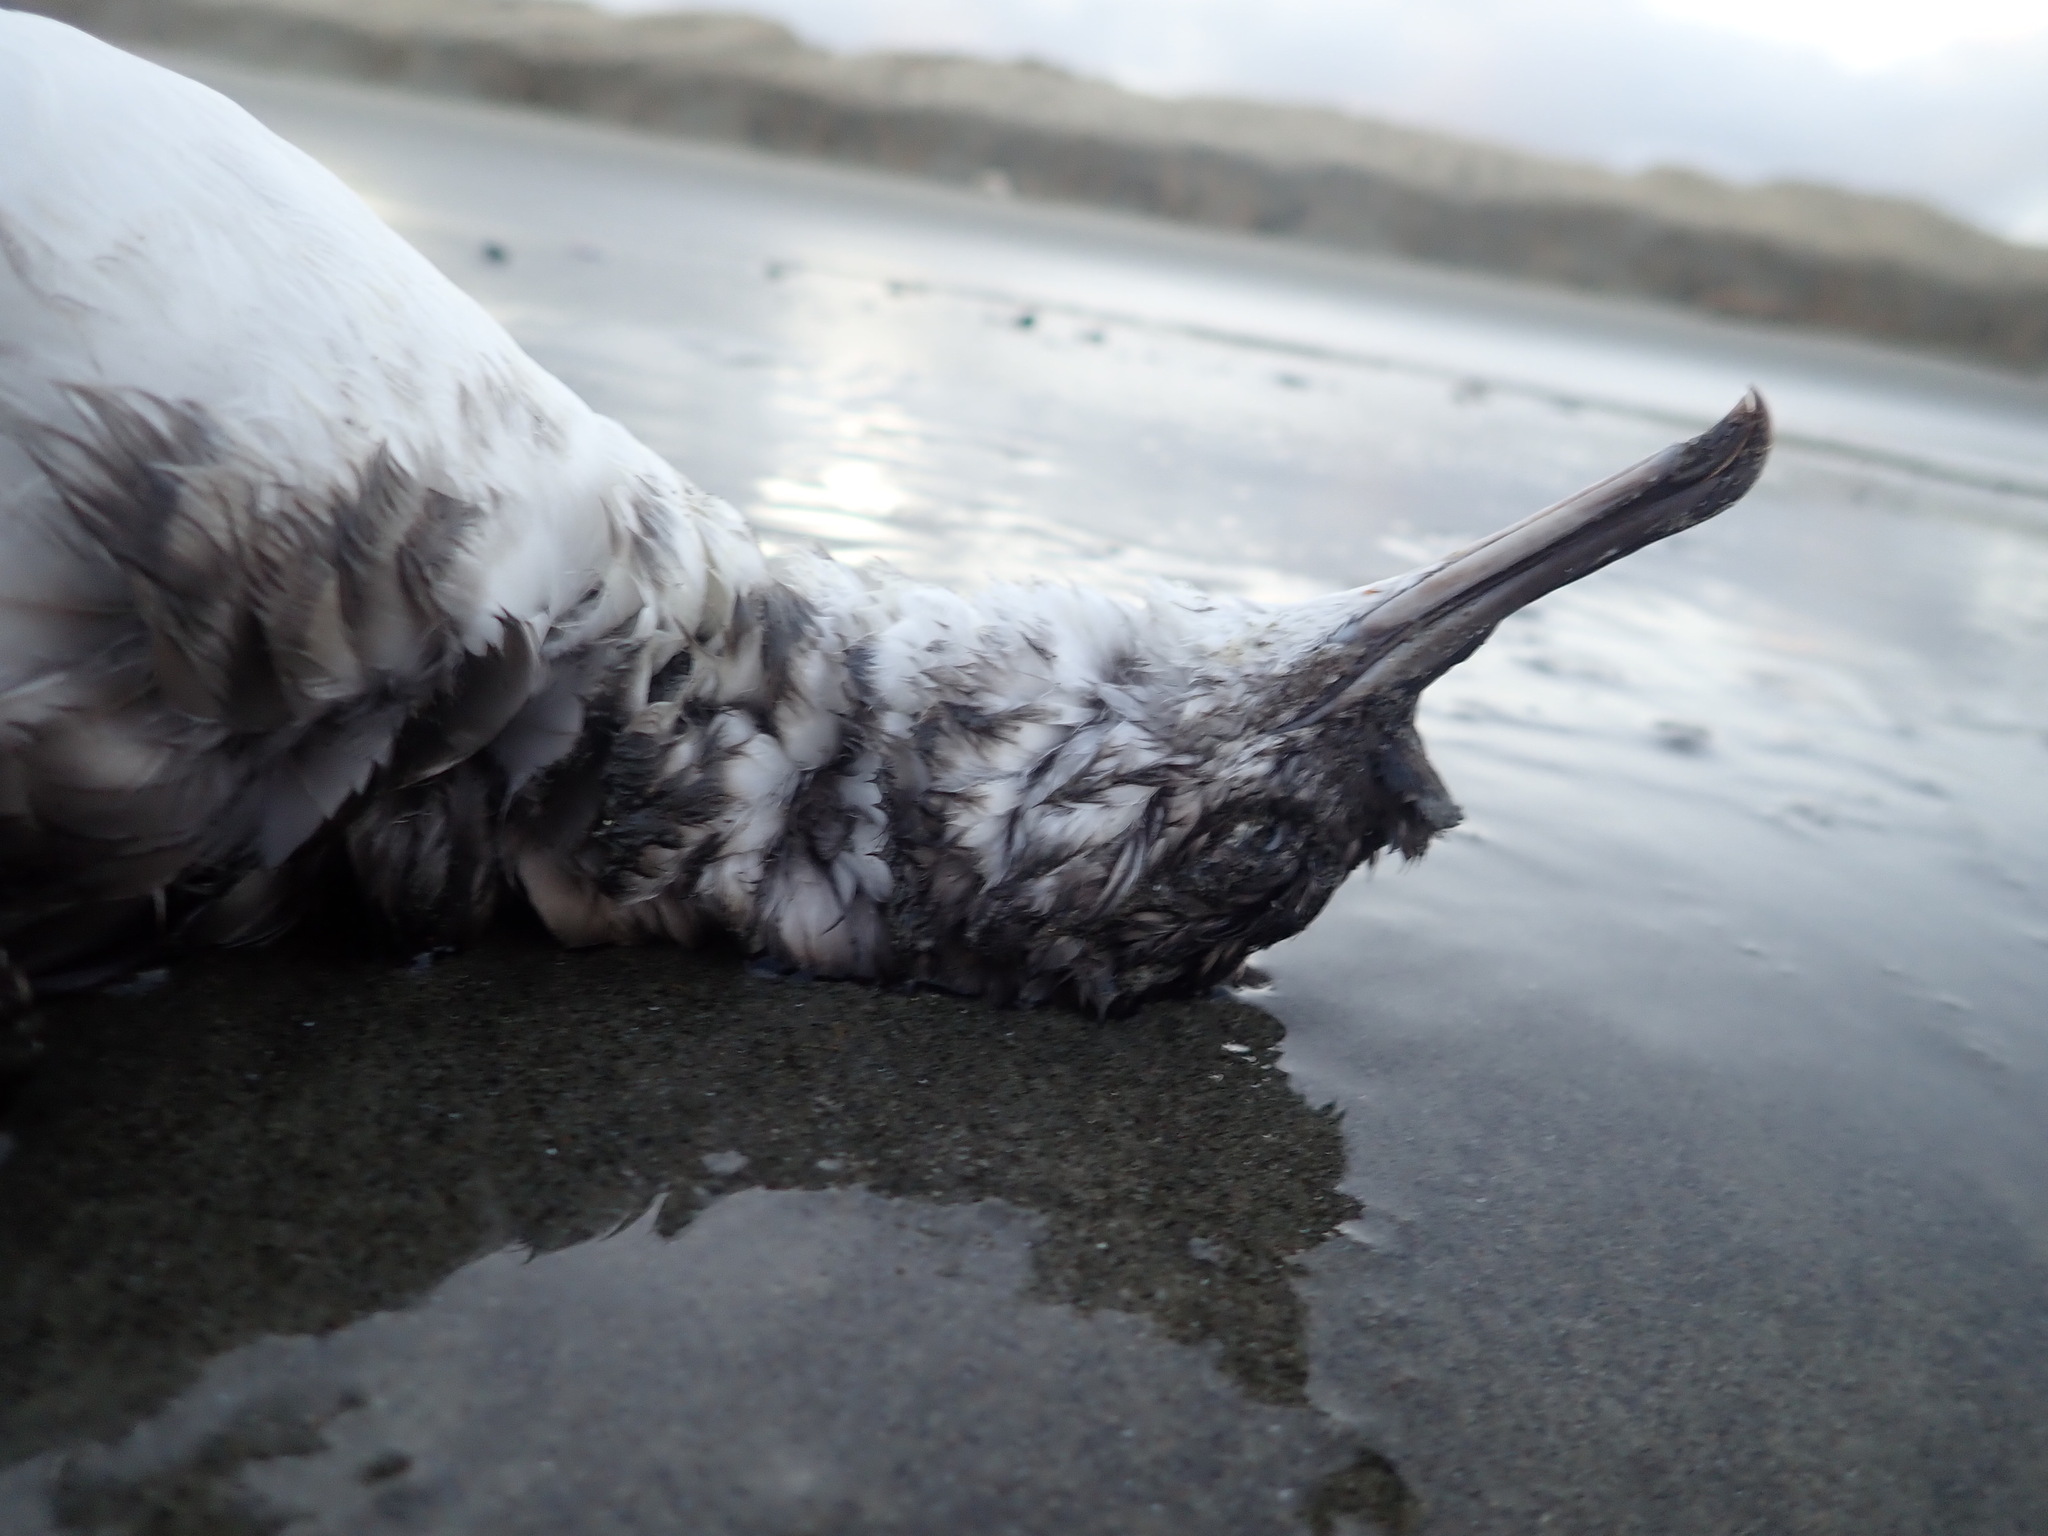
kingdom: Animalia
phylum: Chordata
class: Aves
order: Procellariiformes
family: Procellariidae
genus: Puffinus
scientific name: Puffinus gavia
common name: Fluttering shearwater
